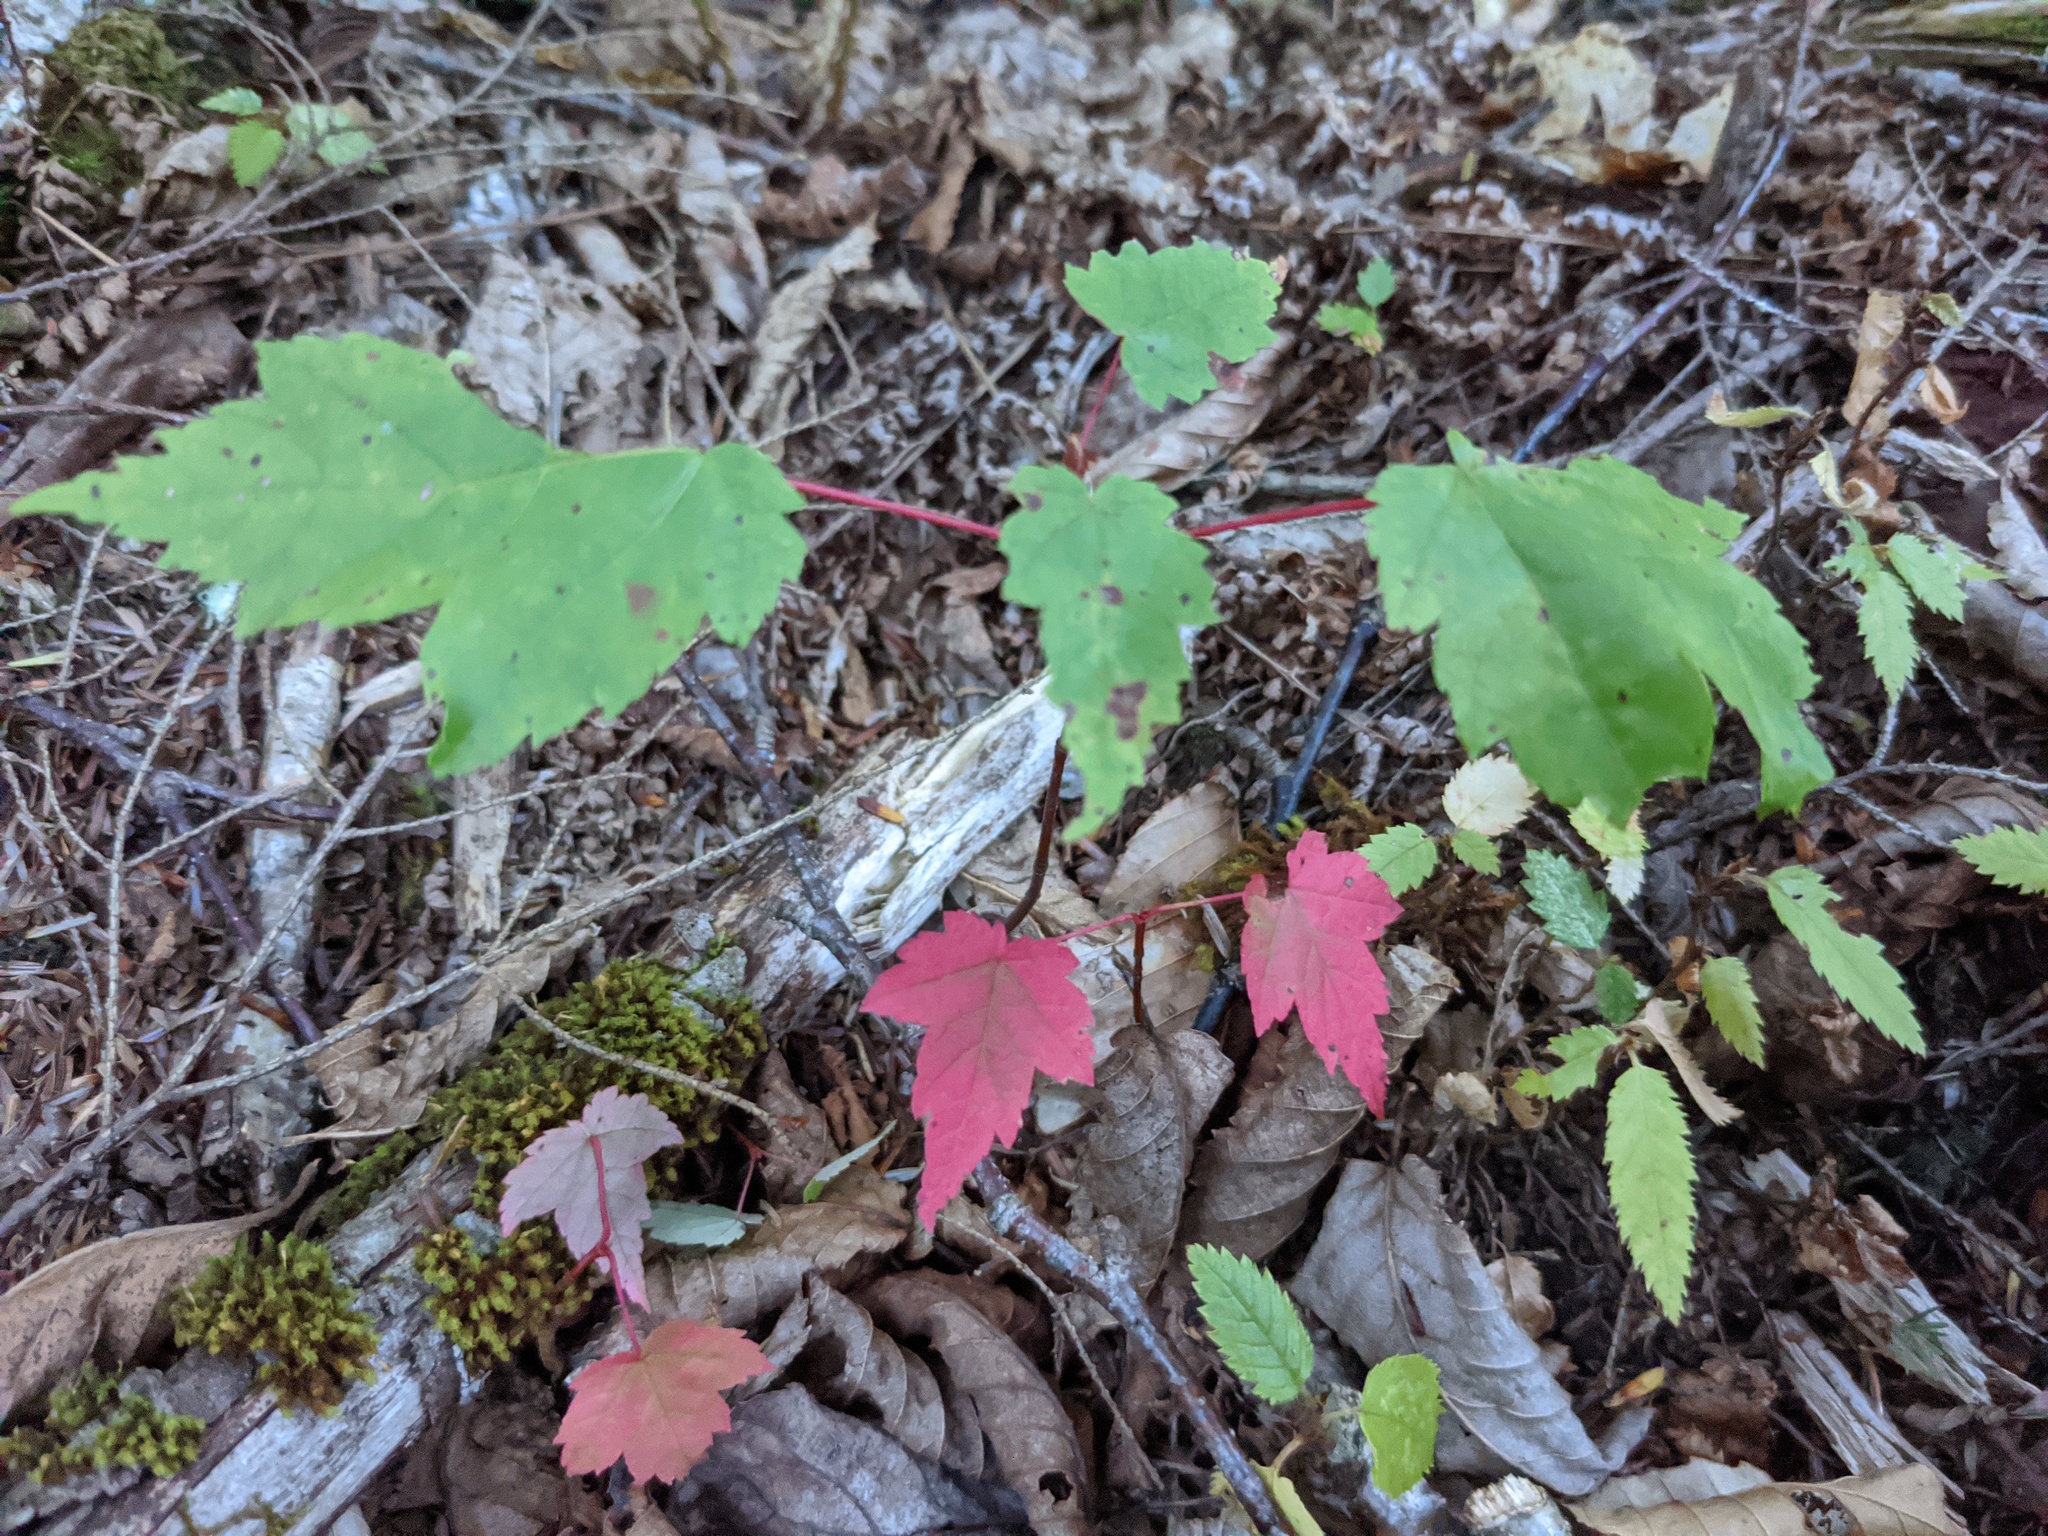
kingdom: Plantae
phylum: Tracheophyta
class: Magnoliopsida
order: Sapindales
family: Sapindaceae
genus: Acer
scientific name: Acer rubrum
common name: Red maple
